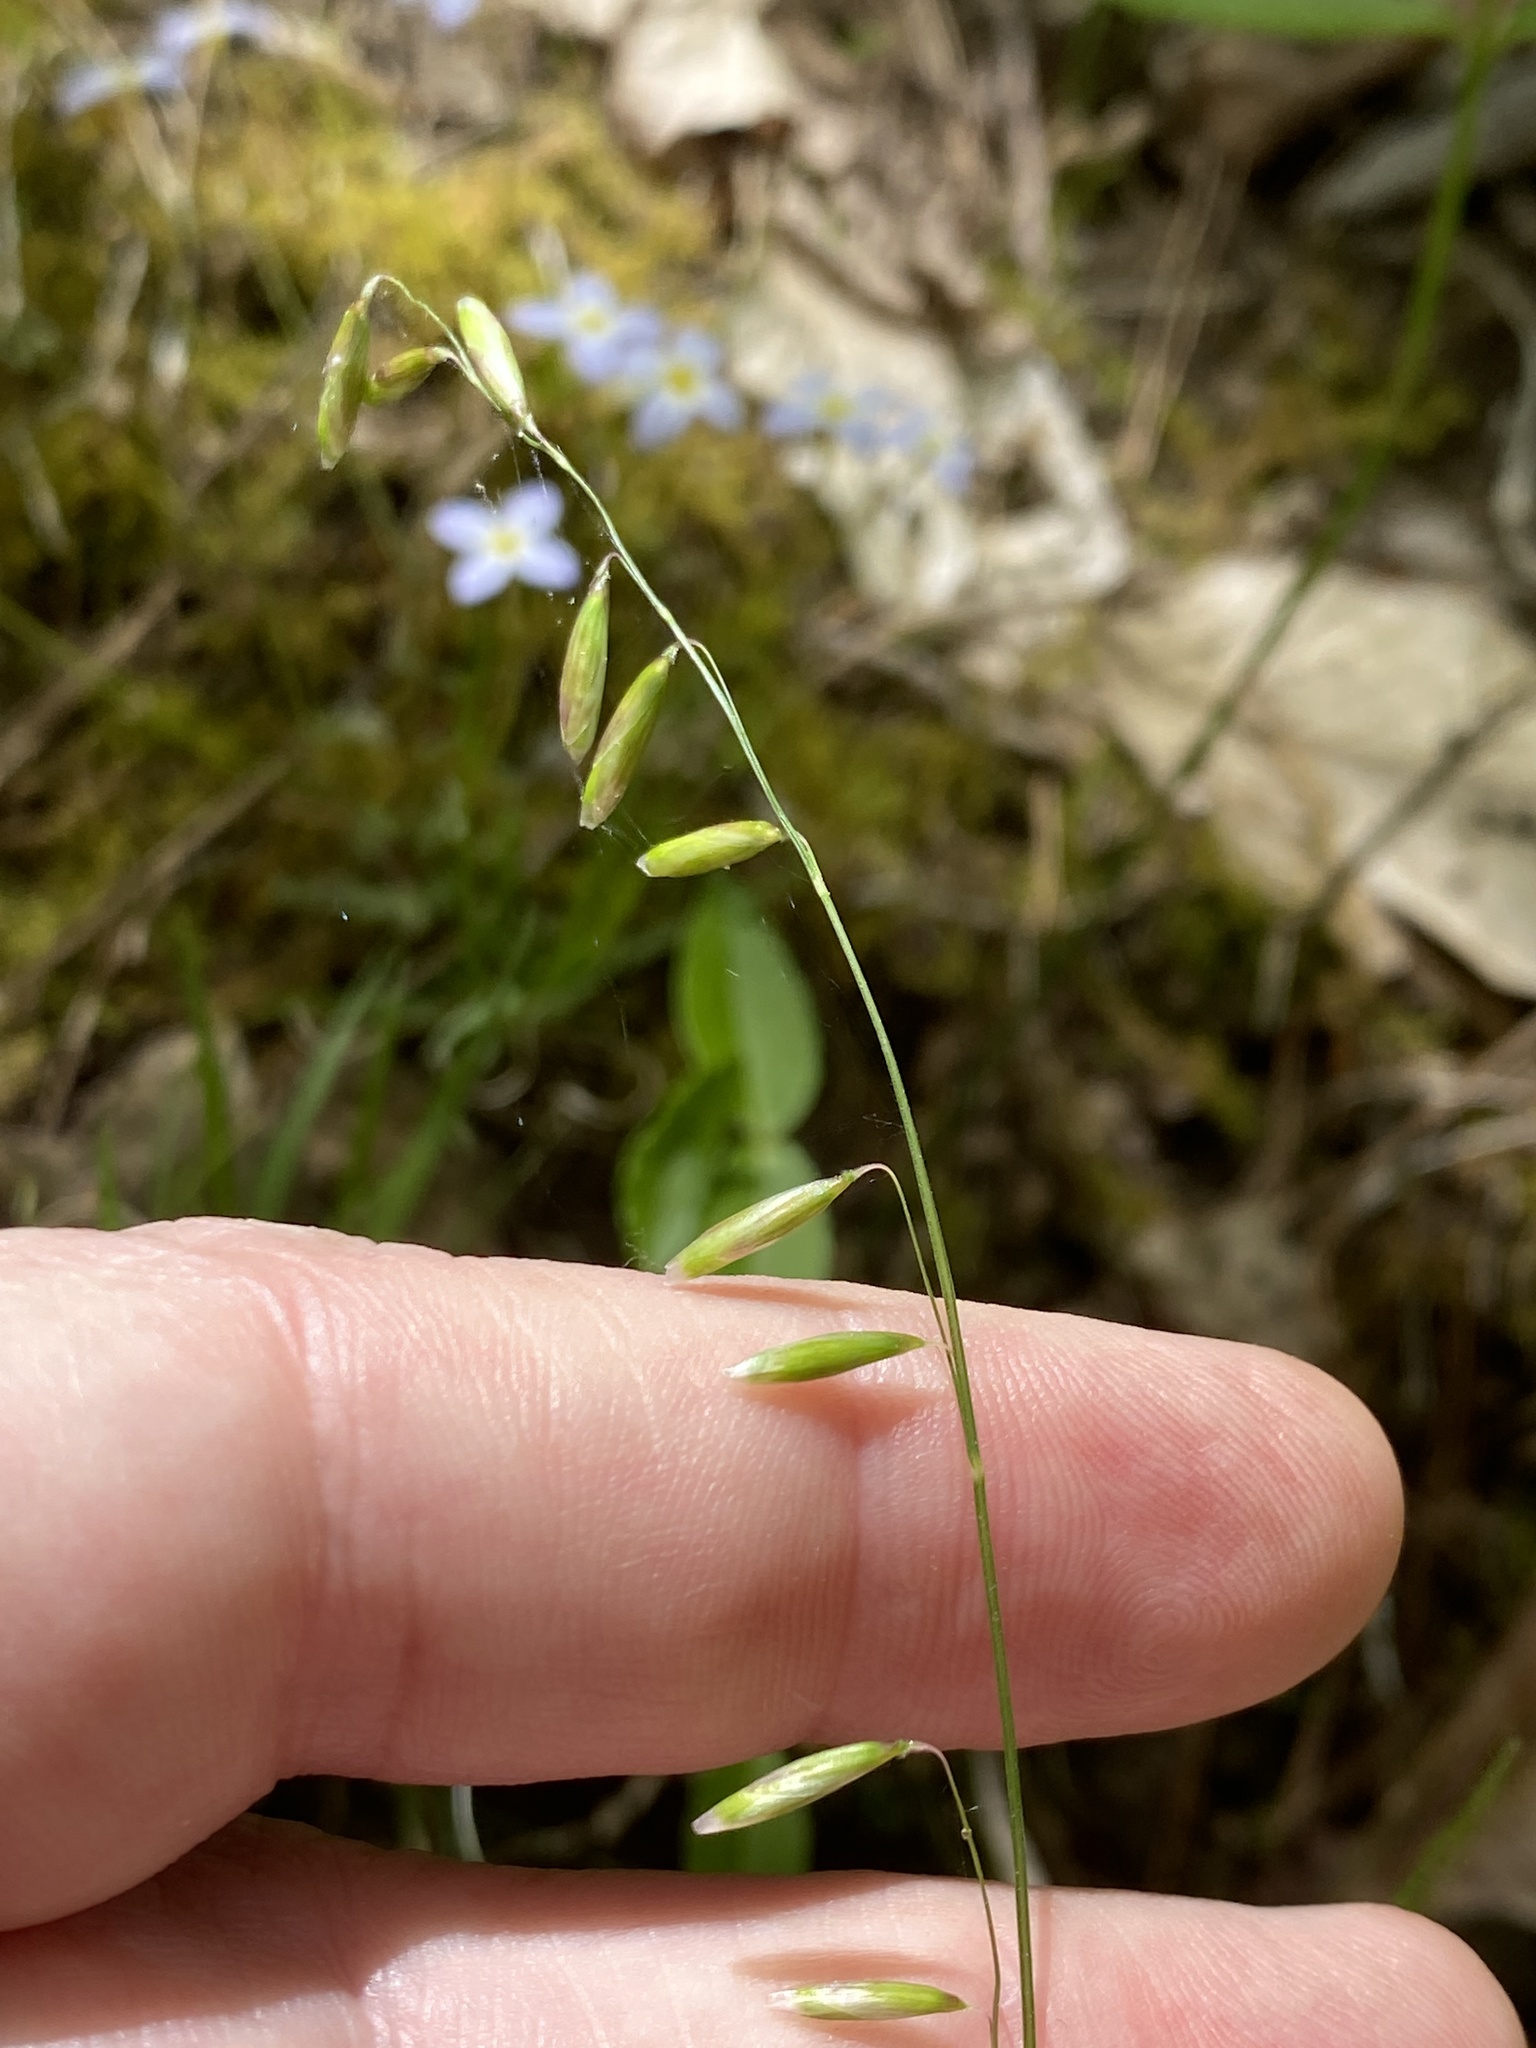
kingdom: Plantae
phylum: Tracheophyta
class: Liliopsida
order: Poales
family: Poaceae
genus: Melica
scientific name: Melica mutica
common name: Two-flower melic
